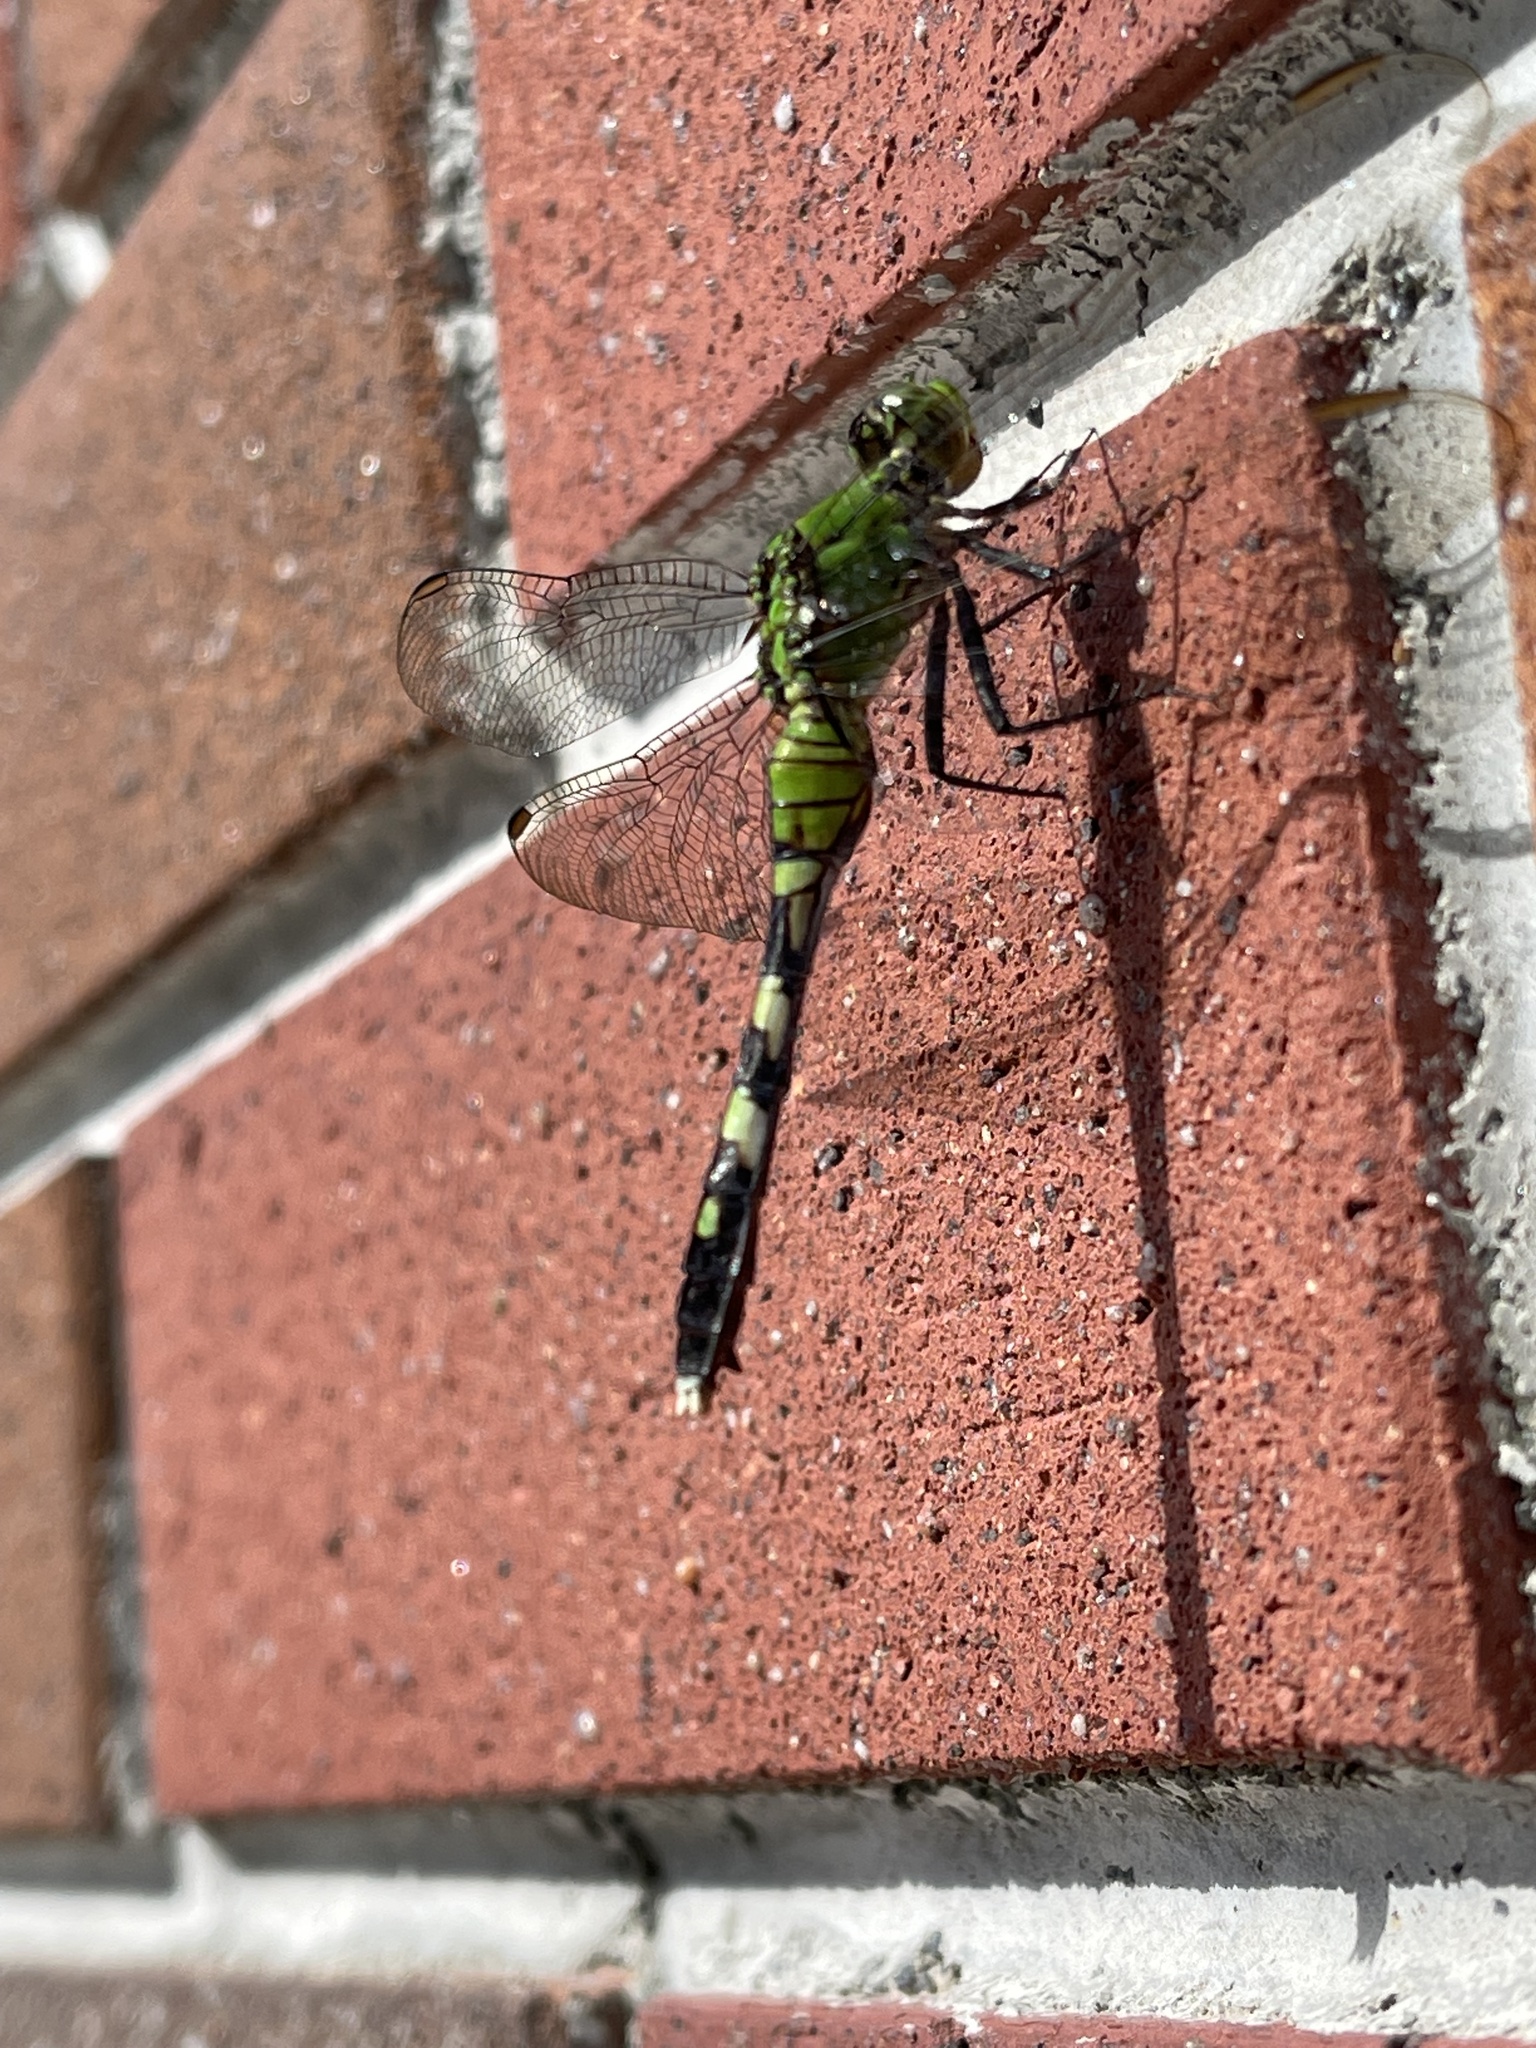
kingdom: Animalia
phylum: Arthropoda
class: Insecta
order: Odonata
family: Libellulidae
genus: Erythemis
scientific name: Erythemis simplicicollis
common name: Eastern pondhawk
